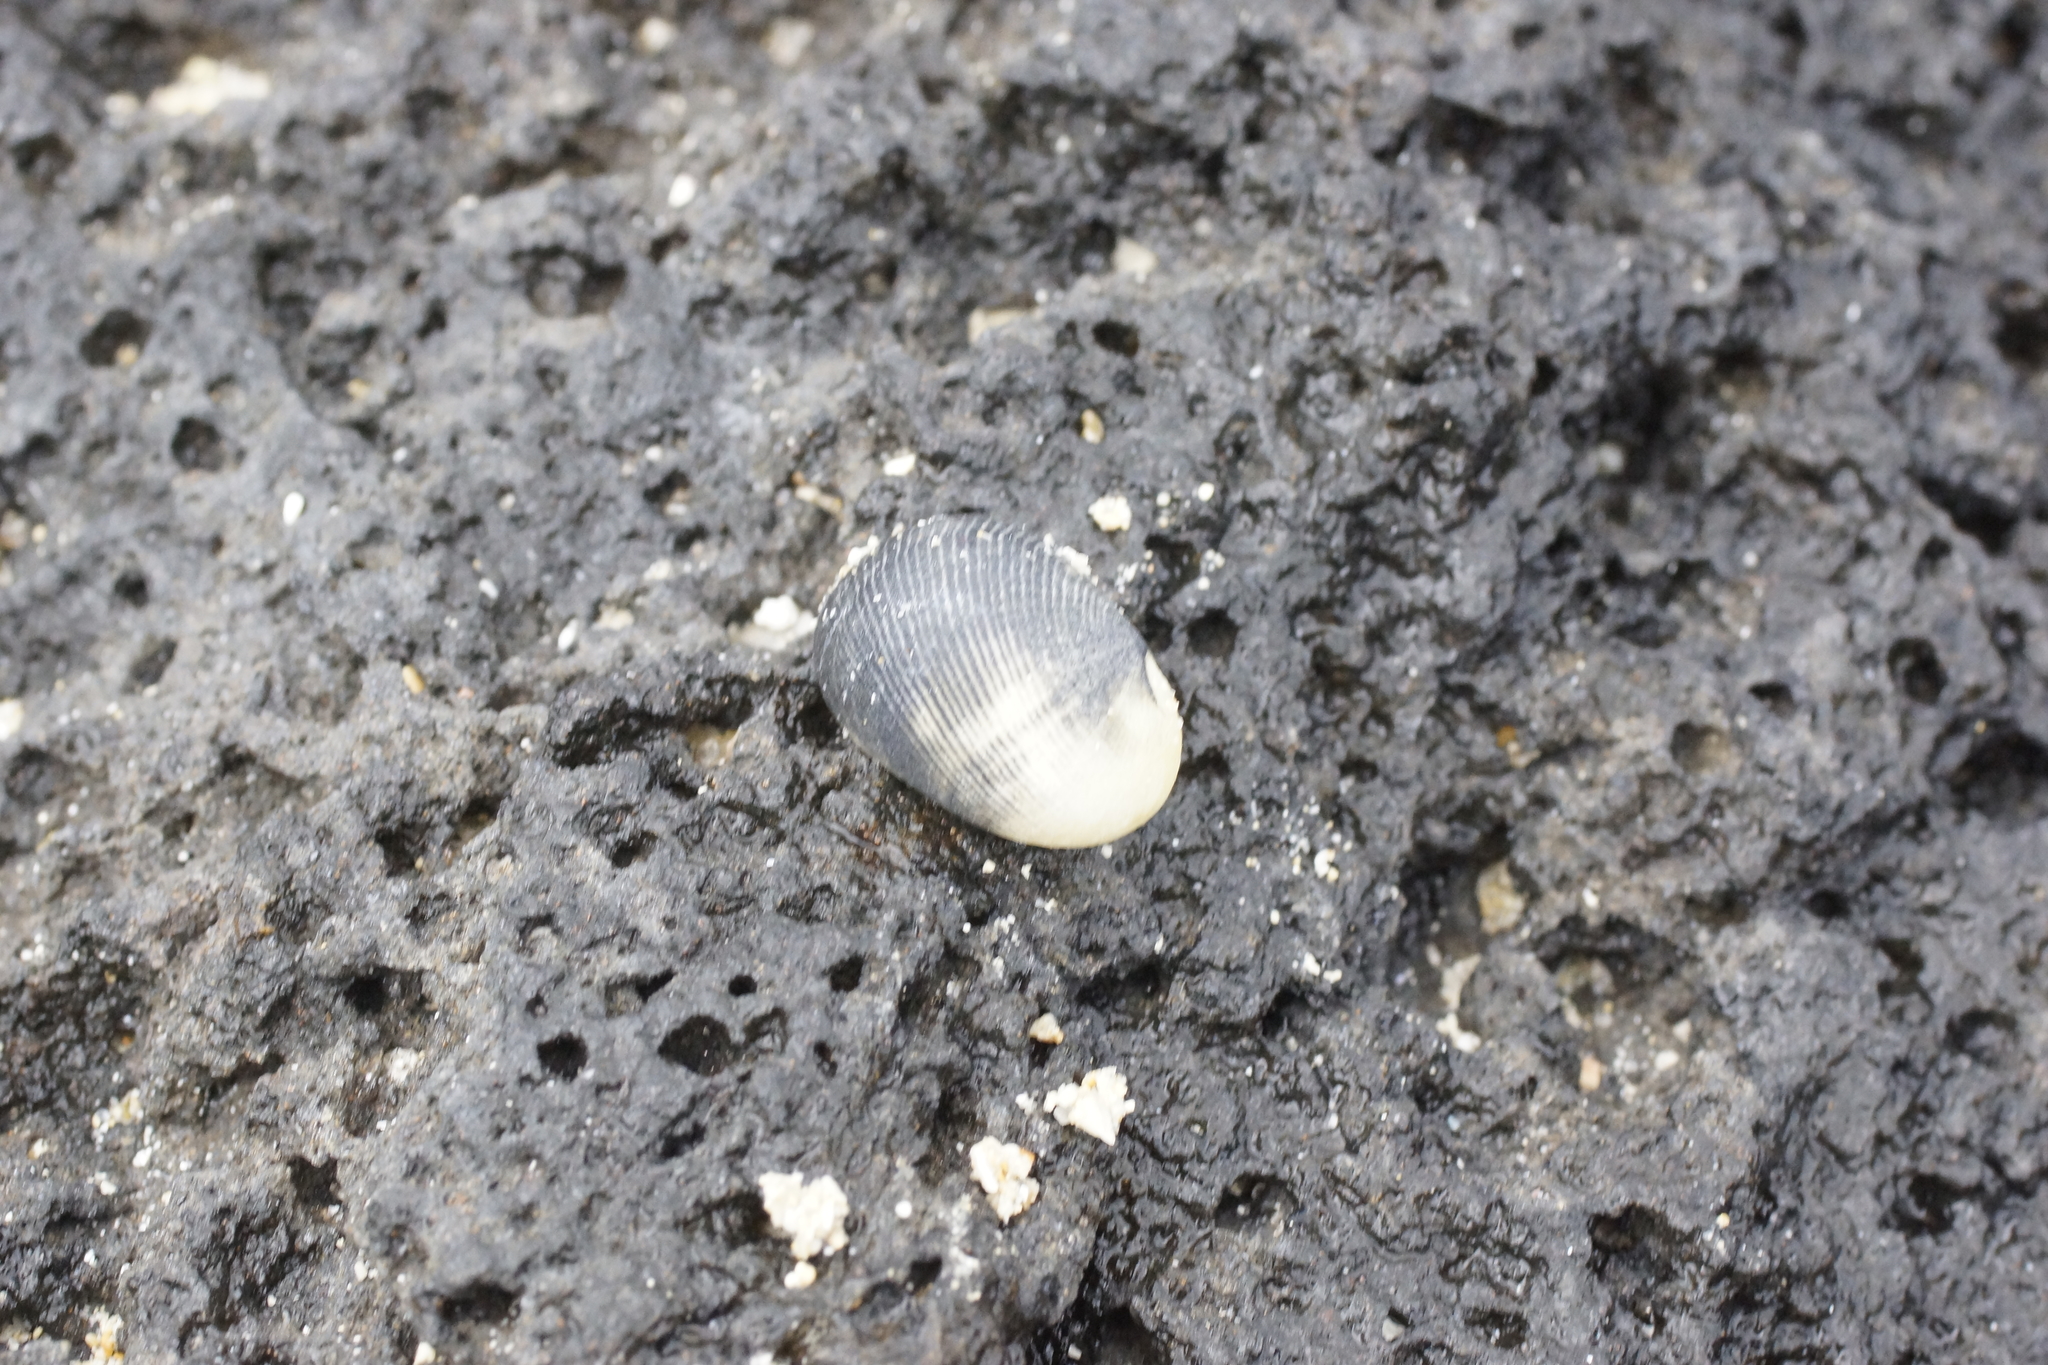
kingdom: Animalia
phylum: Mollusca
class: Gastropoda
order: Cycloneritida
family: Neritidae
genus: Nerita
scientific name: Nerita atramentosa
